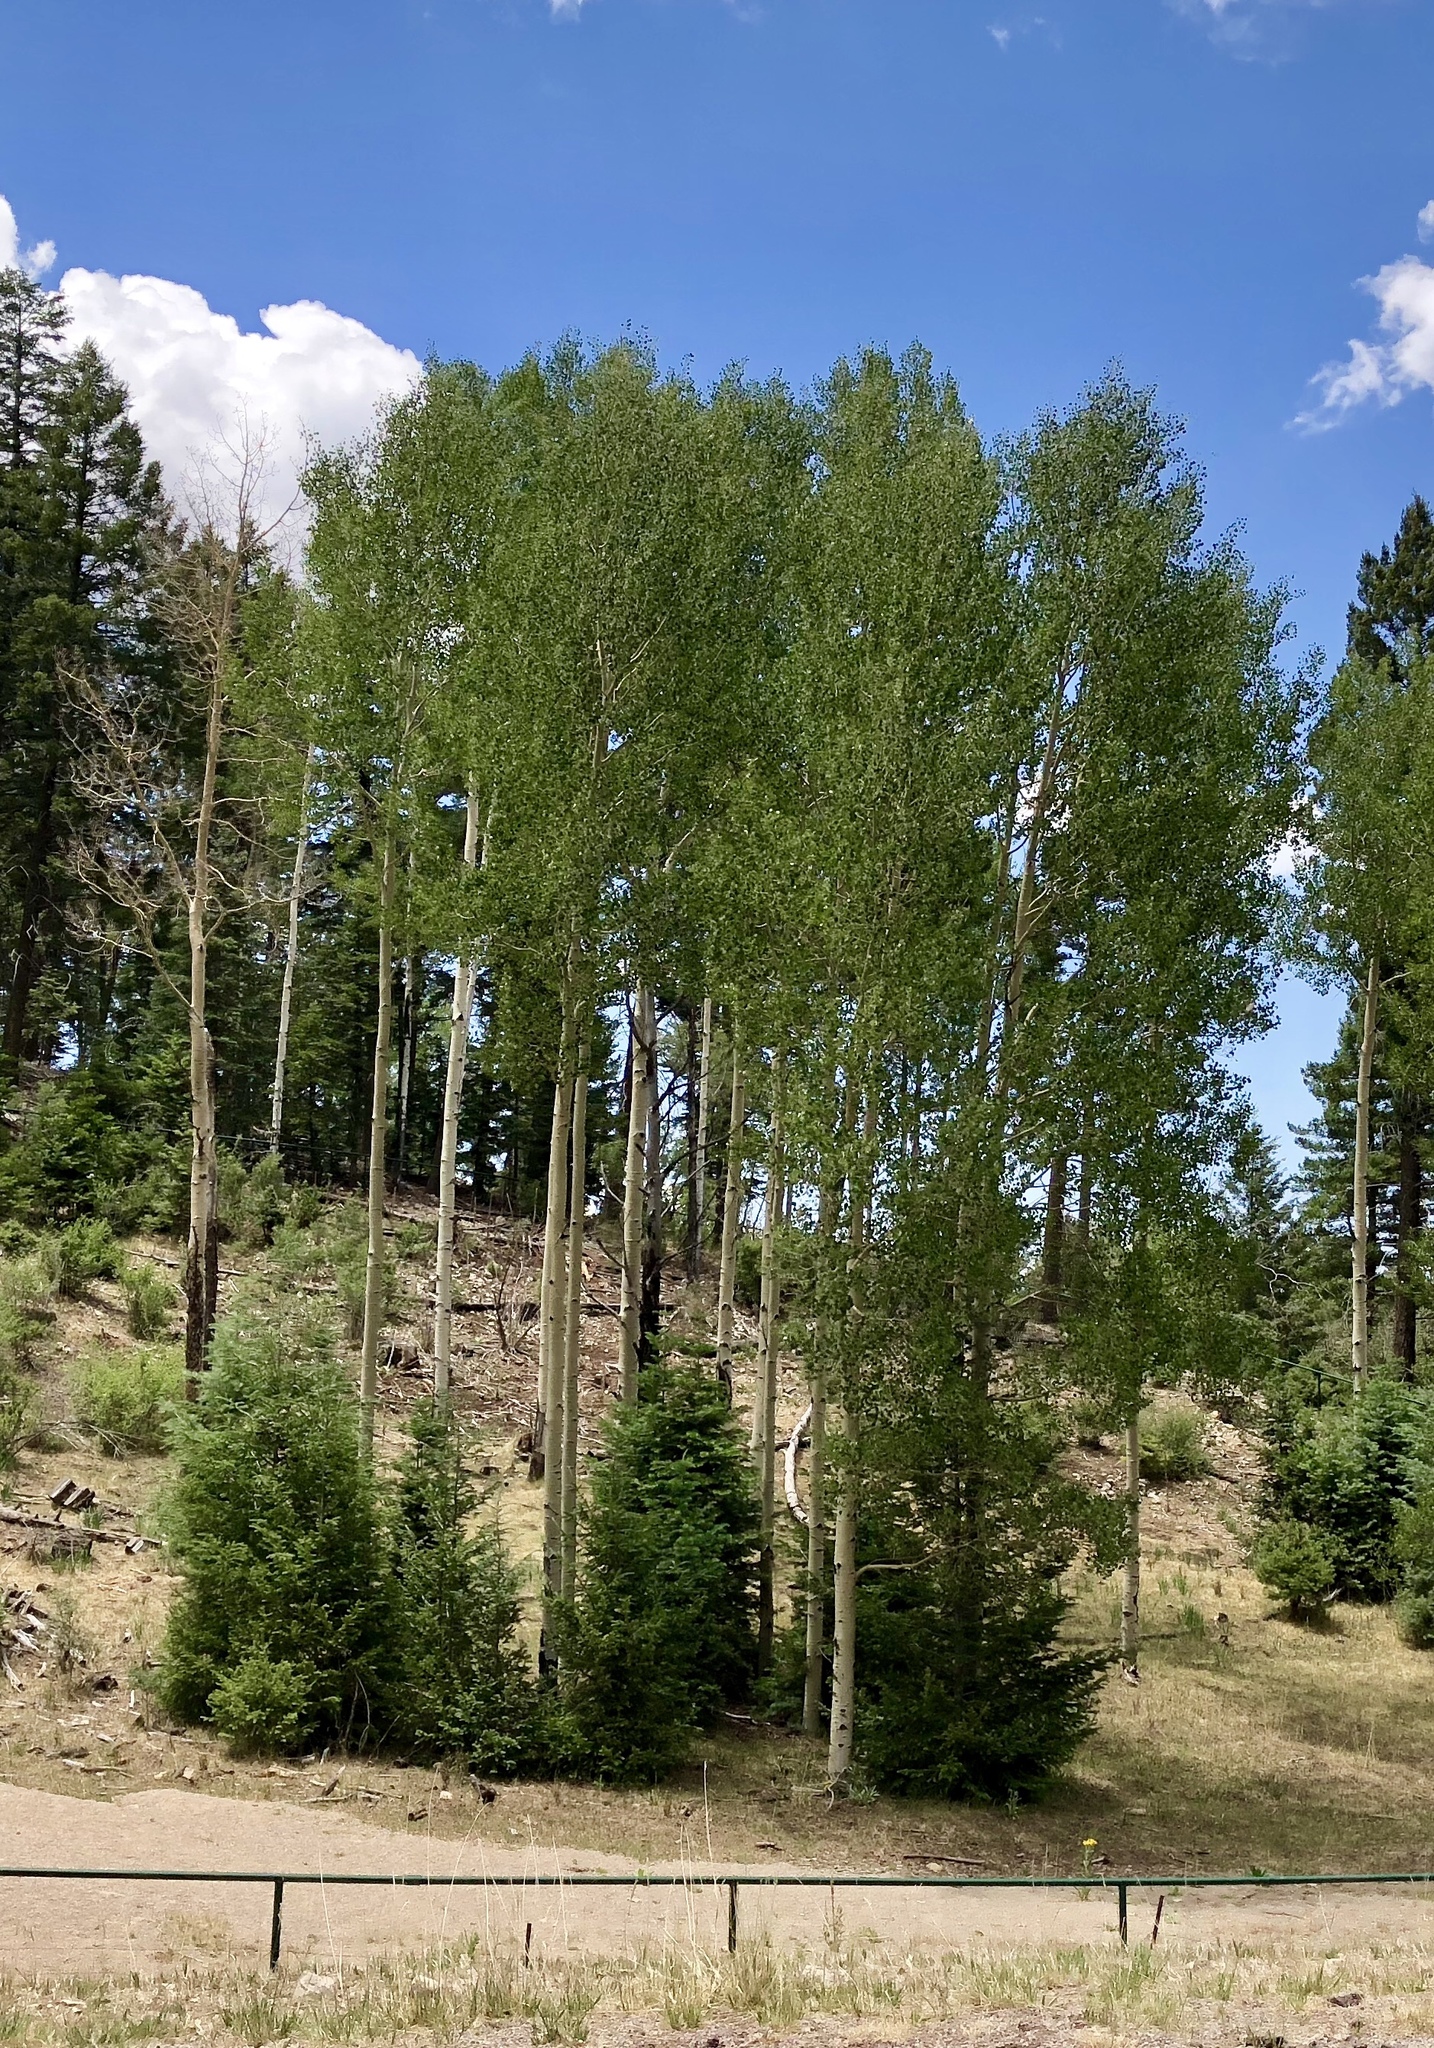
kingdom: Plantae
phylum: Tracheophyta
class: Magnoliopsida
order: Malpighiales
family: Salicaceae
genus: Populus
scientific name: Populus tremuloides
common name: Quaking aspen
